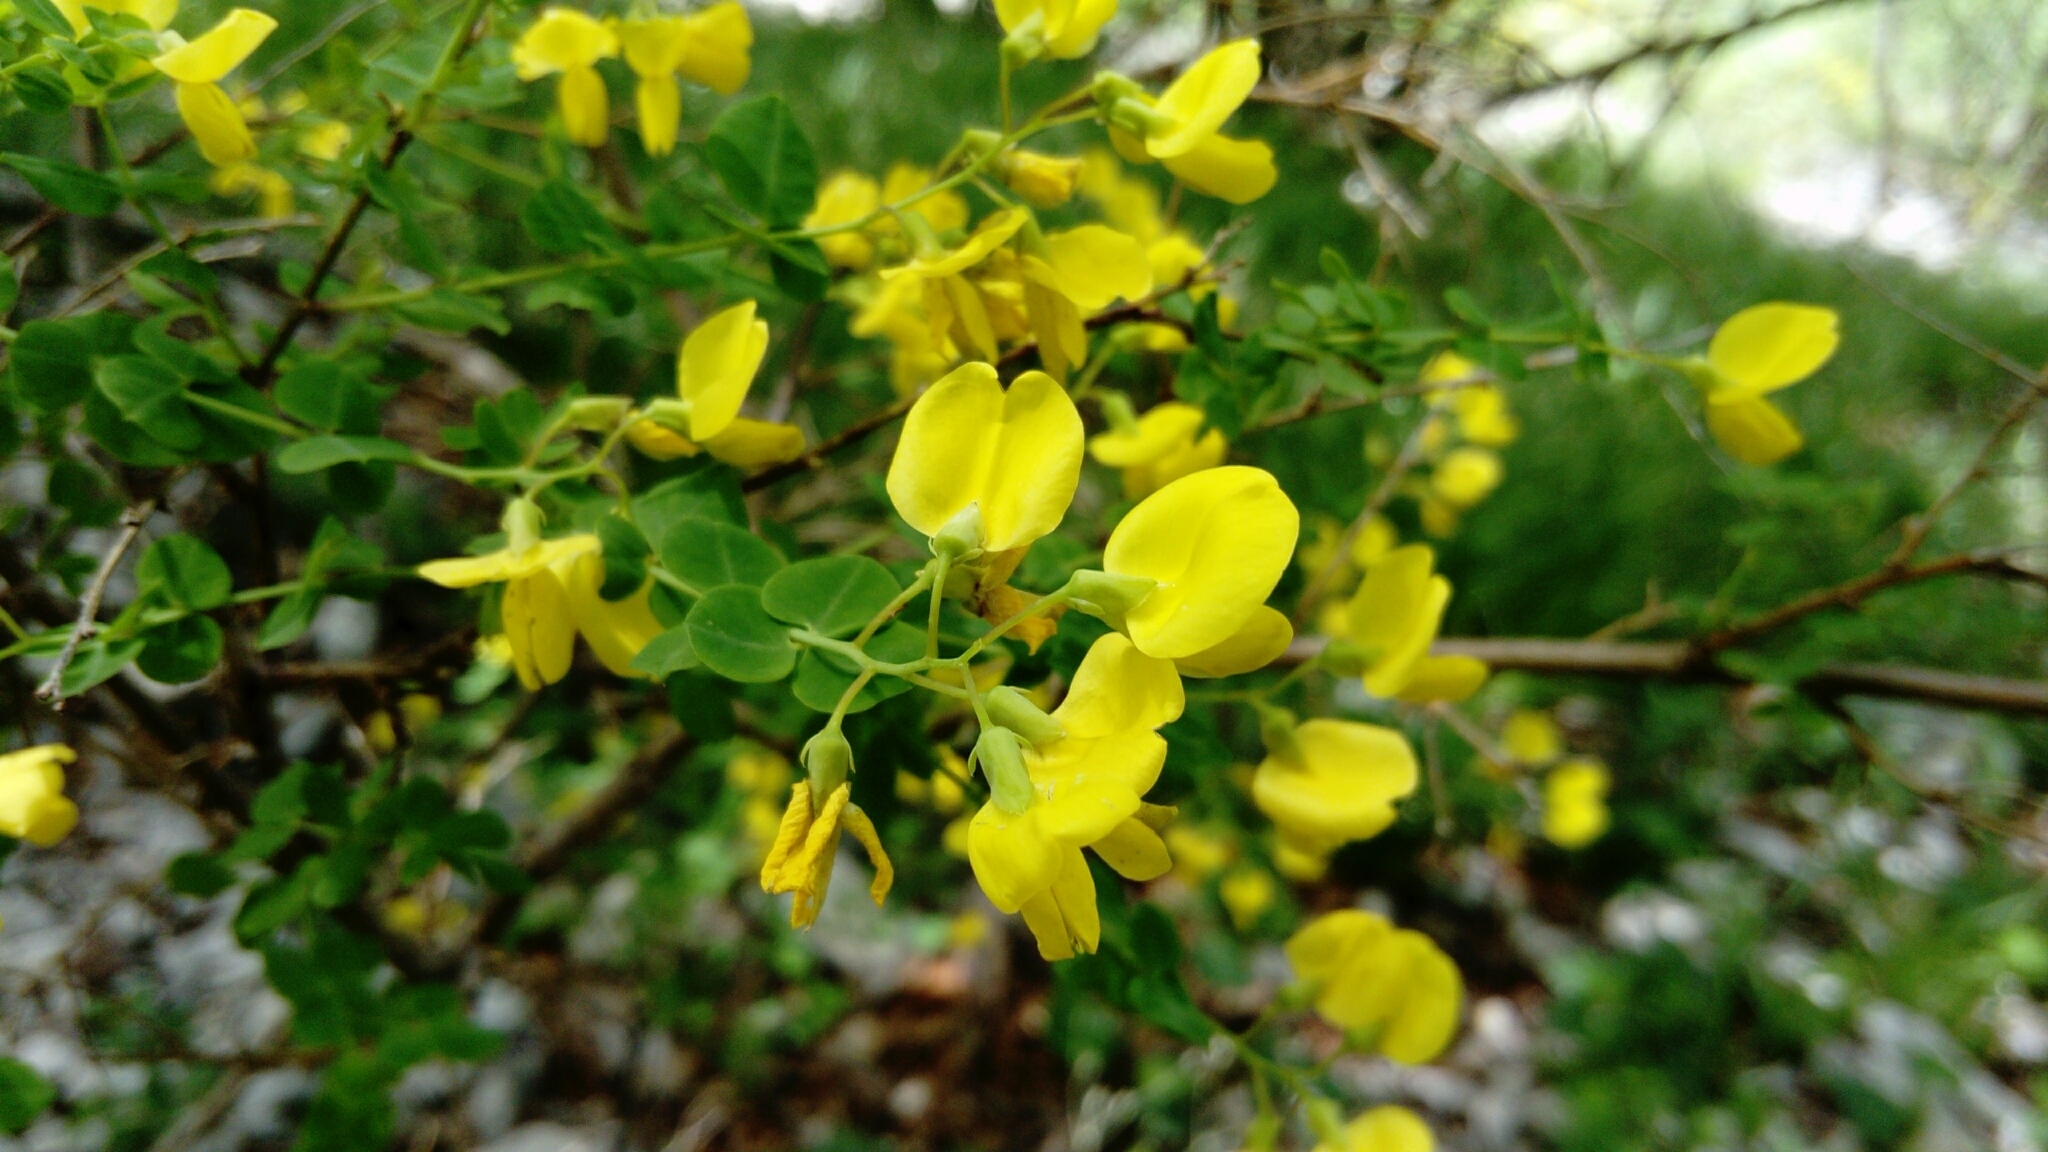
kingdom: Plantae
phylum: Tracheophyta
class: Magnoliopsida
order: Fabales
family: Fabaceae
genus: Cytisophyllum
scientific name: Cytisophyllum sessilifolium
